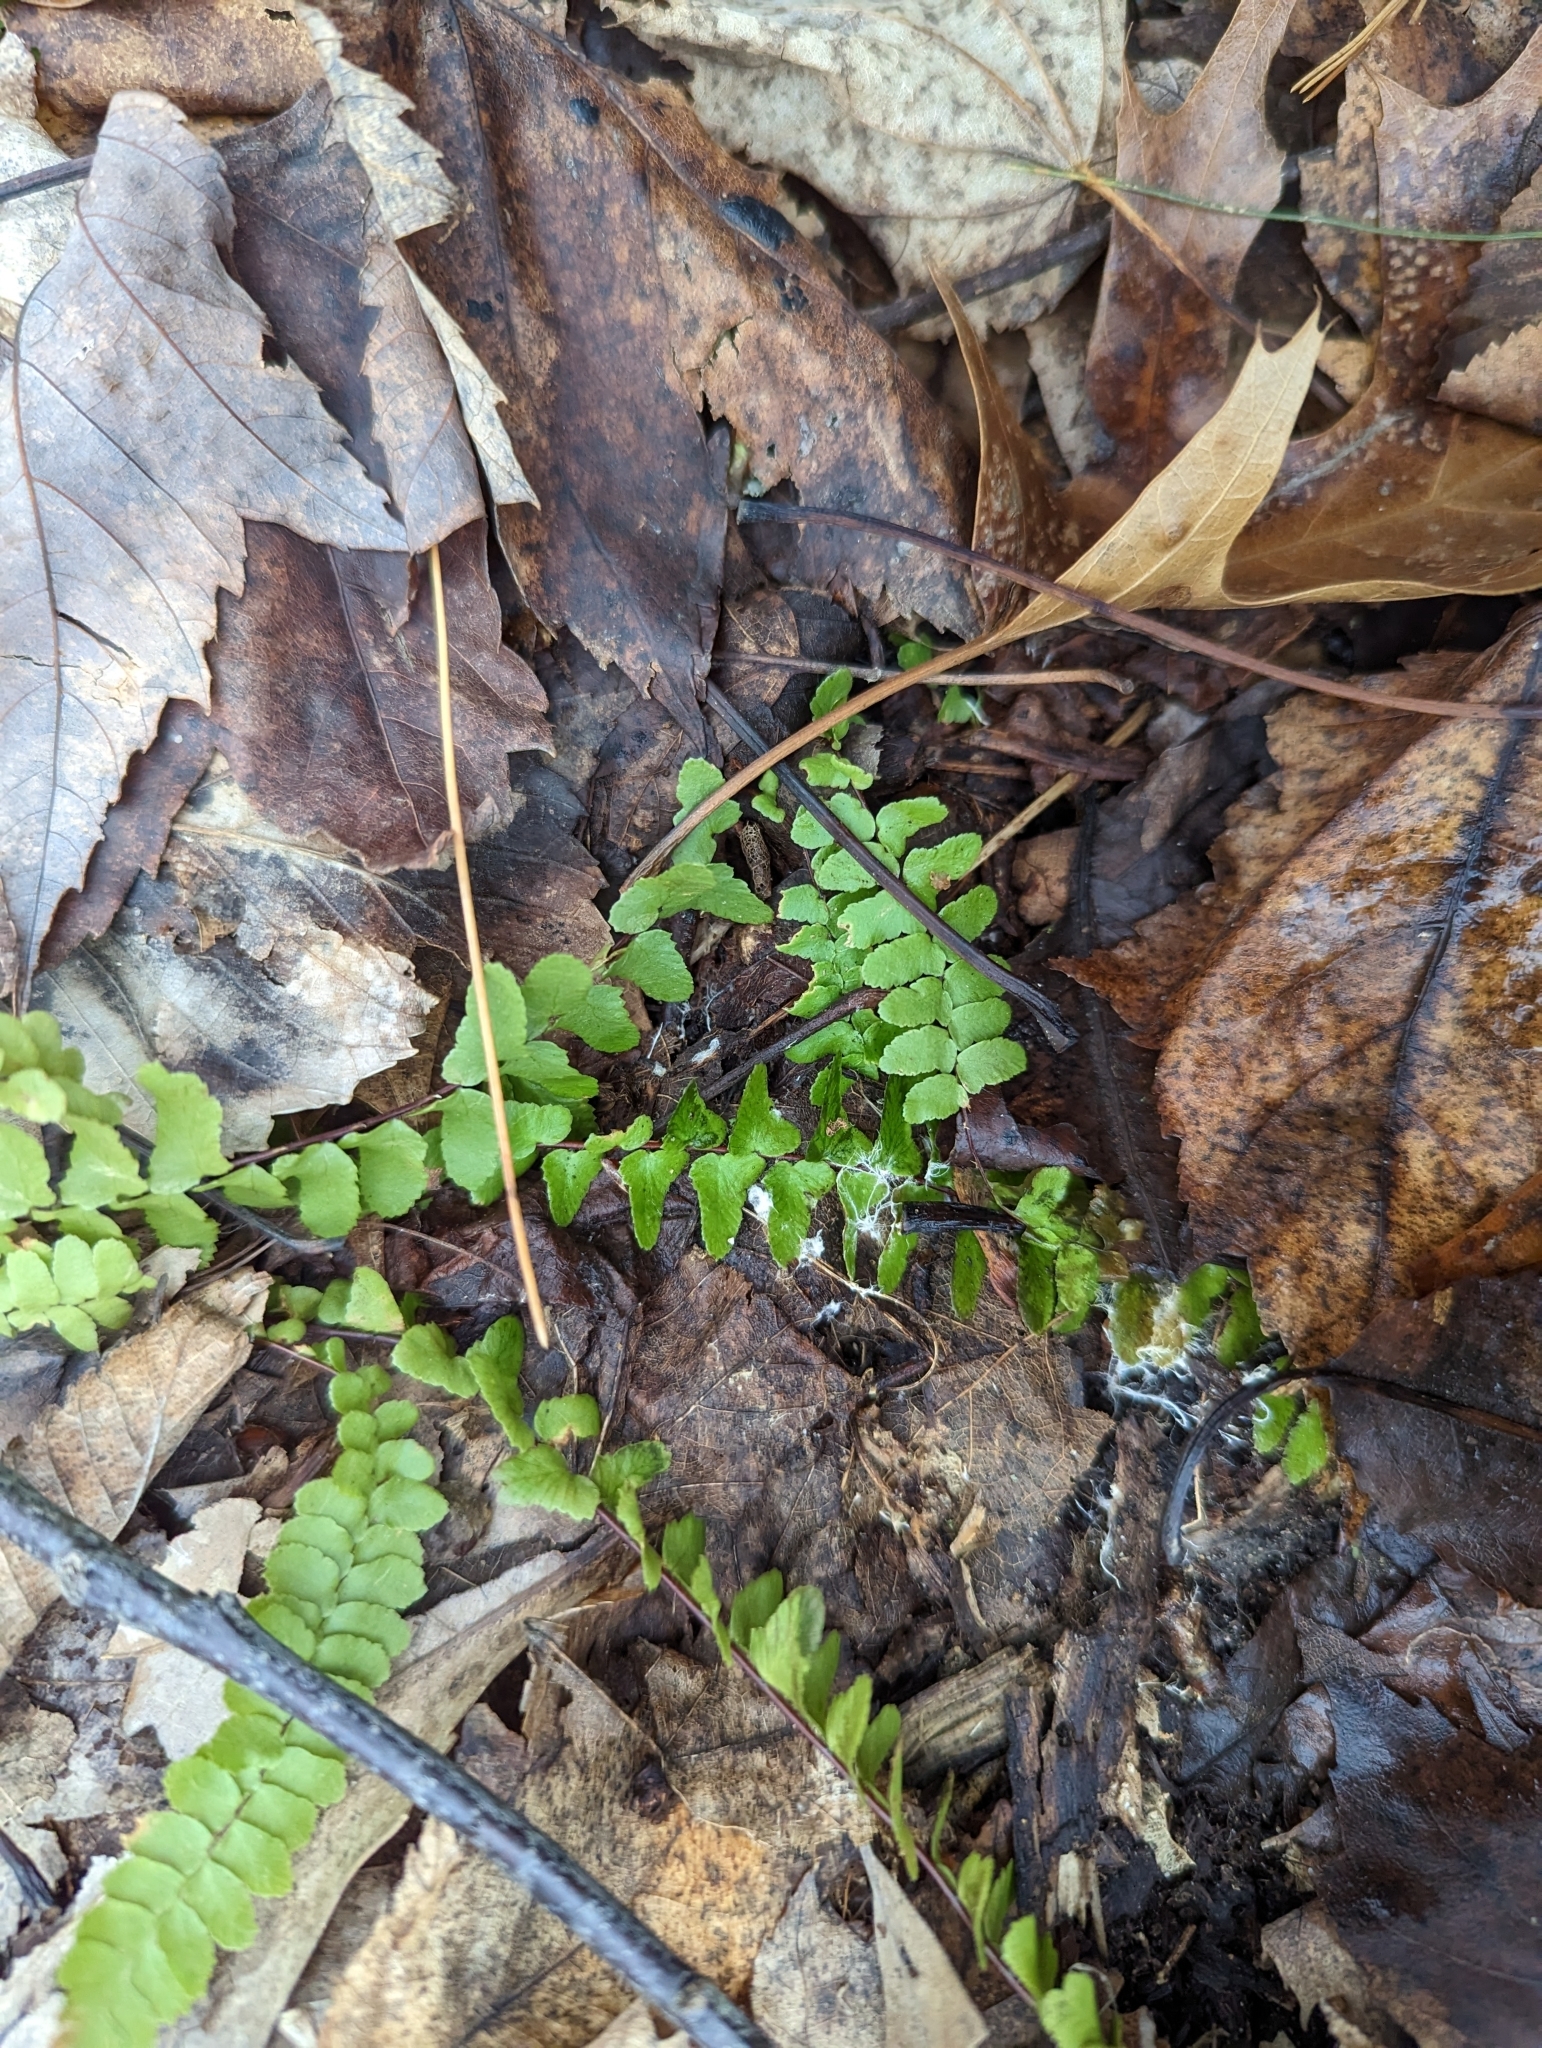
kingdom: Plantae
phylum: Tracheophyta
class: Polypodiopsida
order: Polypodiales
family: Aspleniaceae
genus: Asplenium
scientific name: Asplenium platyneuron
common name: Ebony spleenwort
